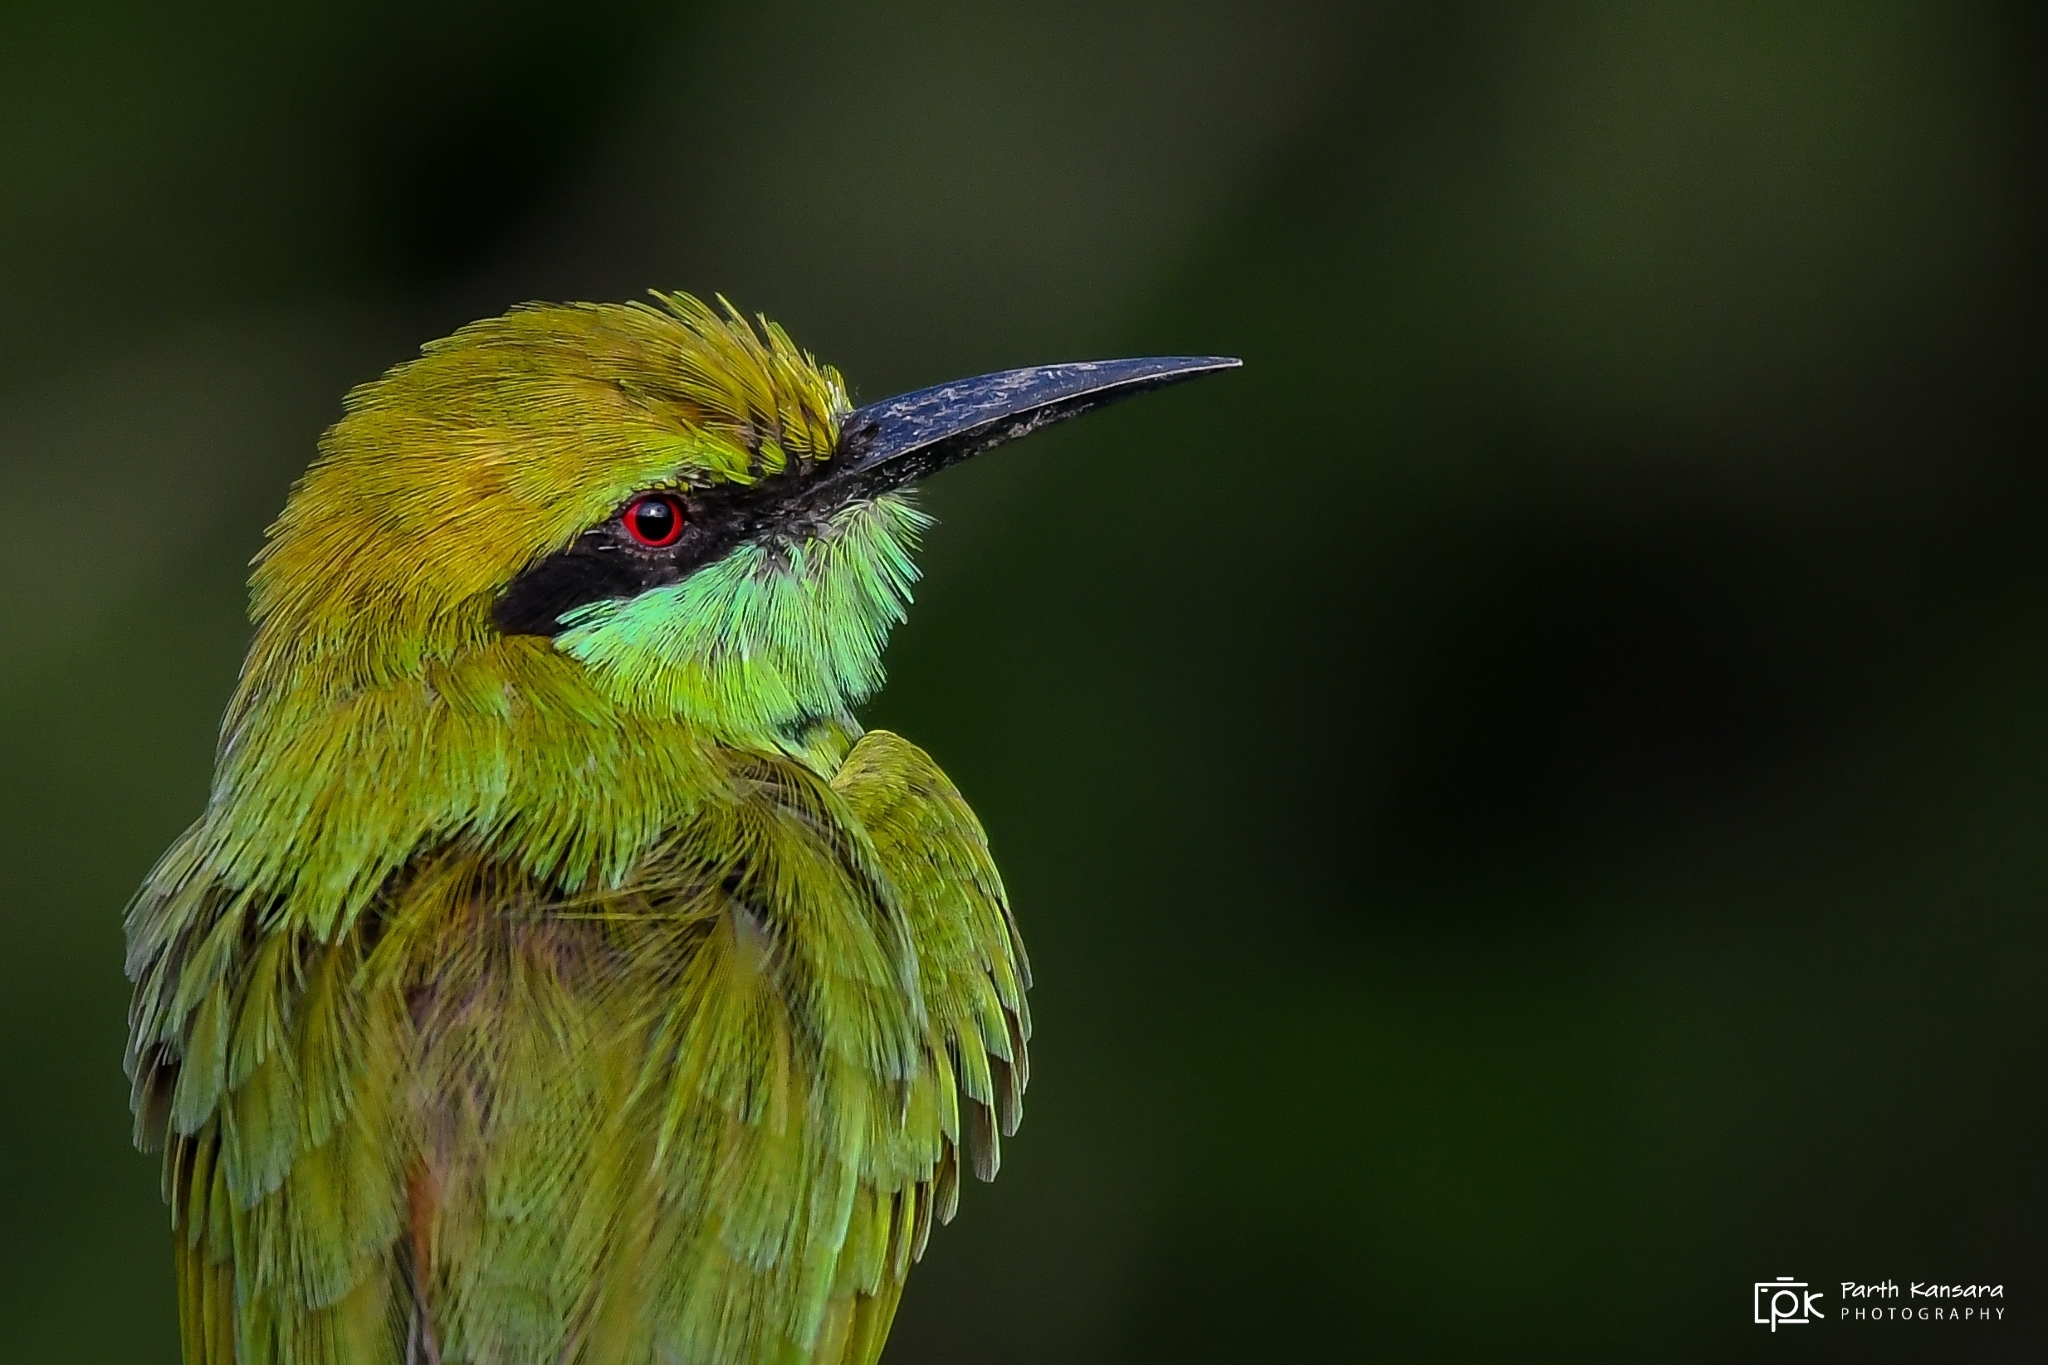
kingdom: Animalia
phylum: Chordata
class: Aves
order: Coraciiformes
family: Meropidae
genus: Merops
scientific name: Merops orientalis
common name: Green bee-eater
